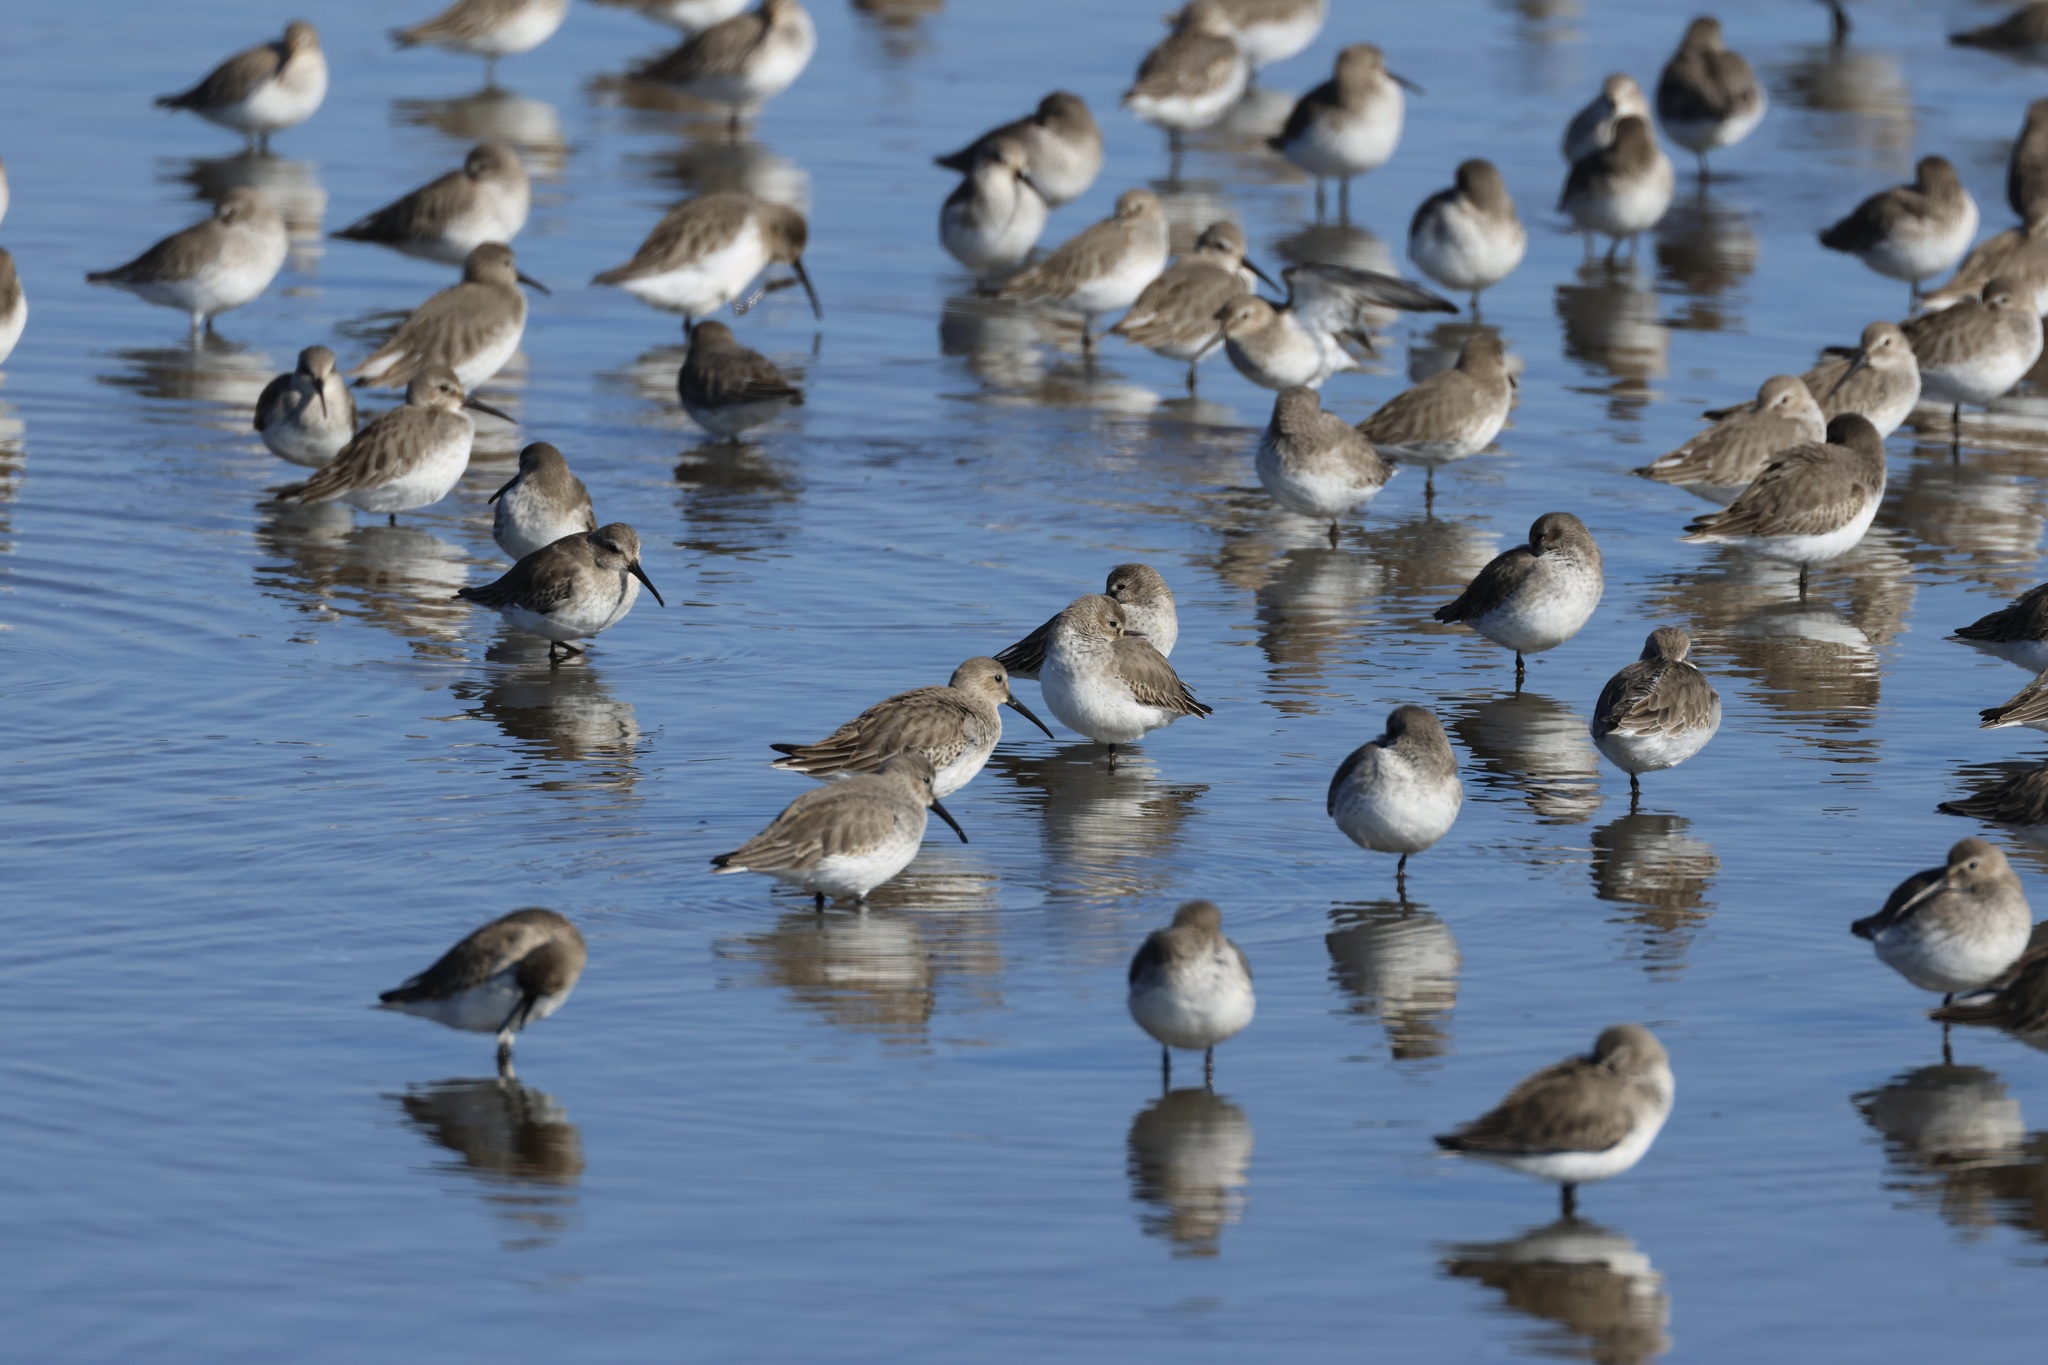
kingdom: Animalia
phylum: Chordata
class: Aves
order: Charadriiformes
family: Scolopacidae
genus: Calidris
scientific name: Calidris alpina
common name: Dunlin
